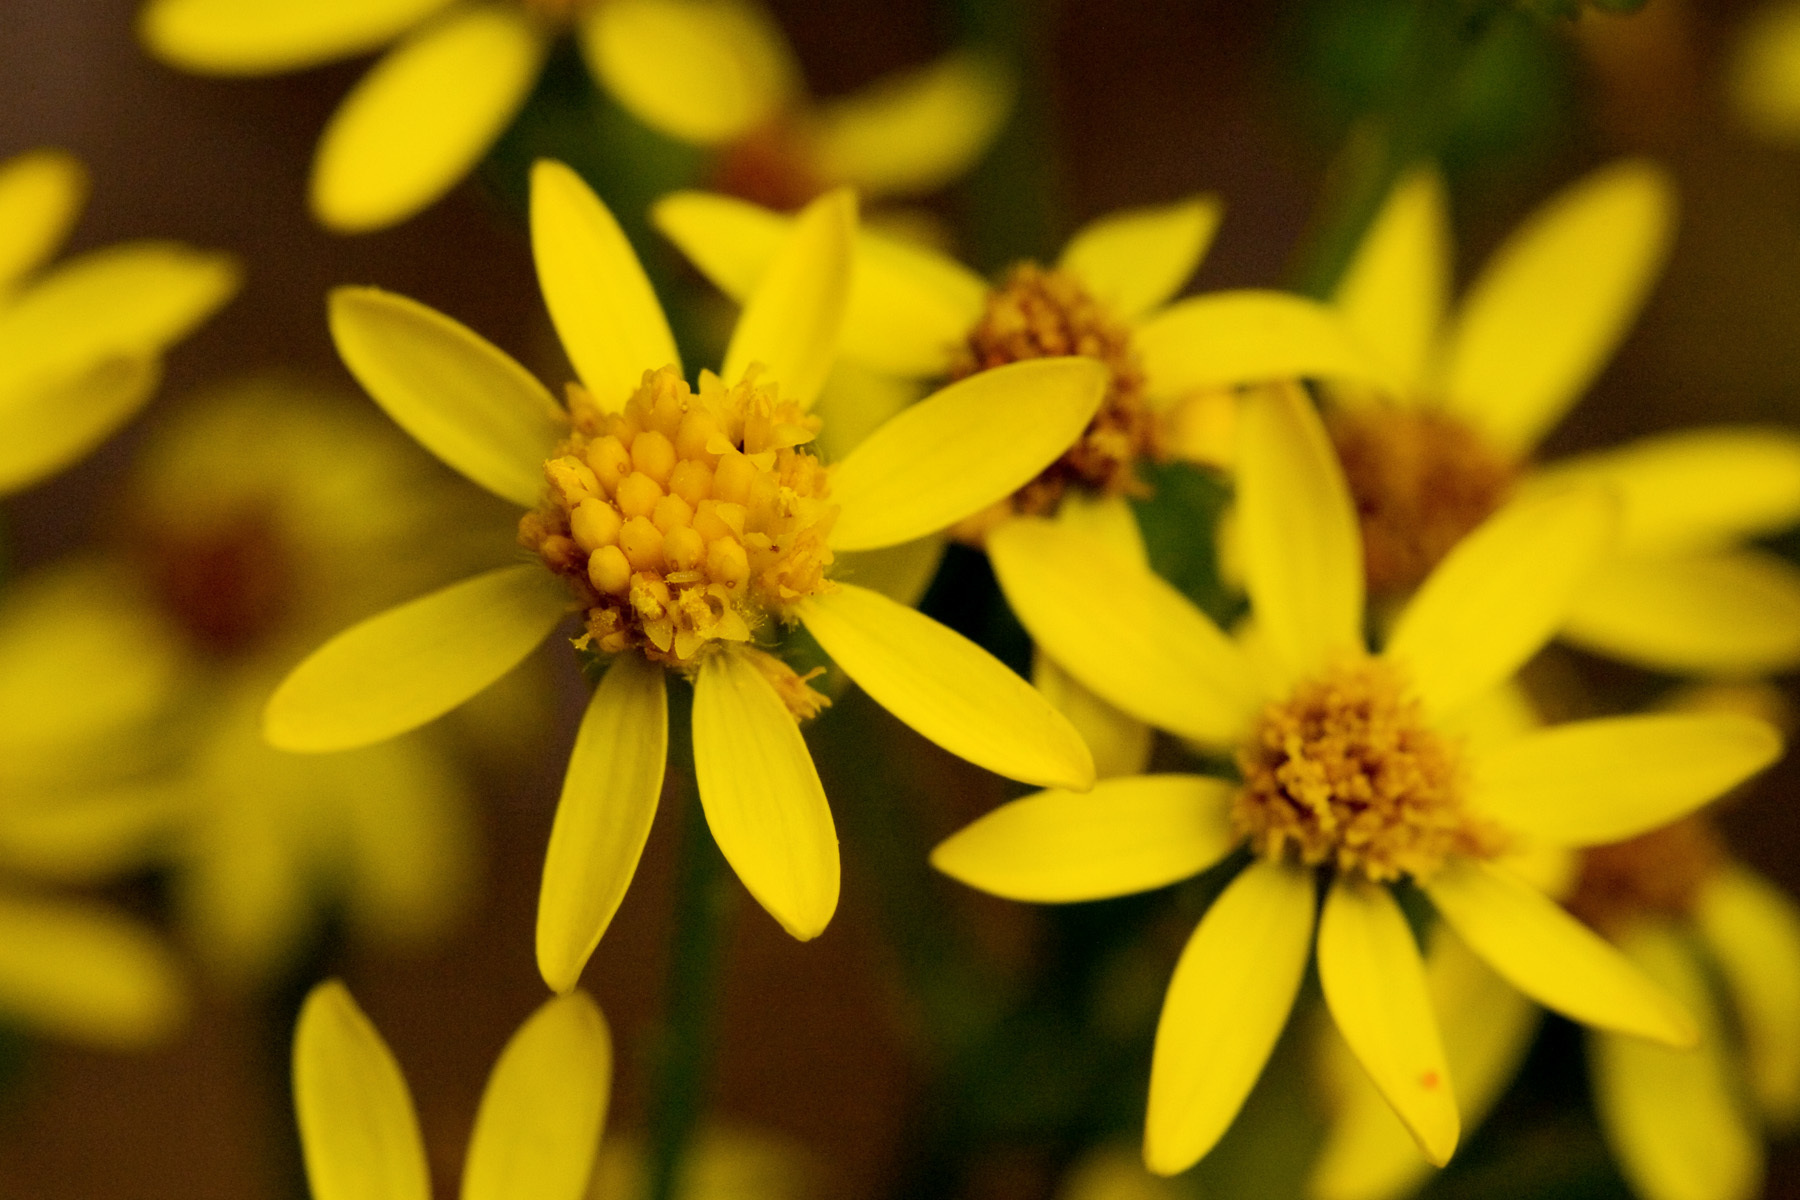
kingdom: Plantae
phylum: Tracheophyta
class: Magnoliopsida
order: Asterales
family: Asteraceae
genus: Packera
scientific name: Packera fendleri
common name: Notch-leaf butterweed
